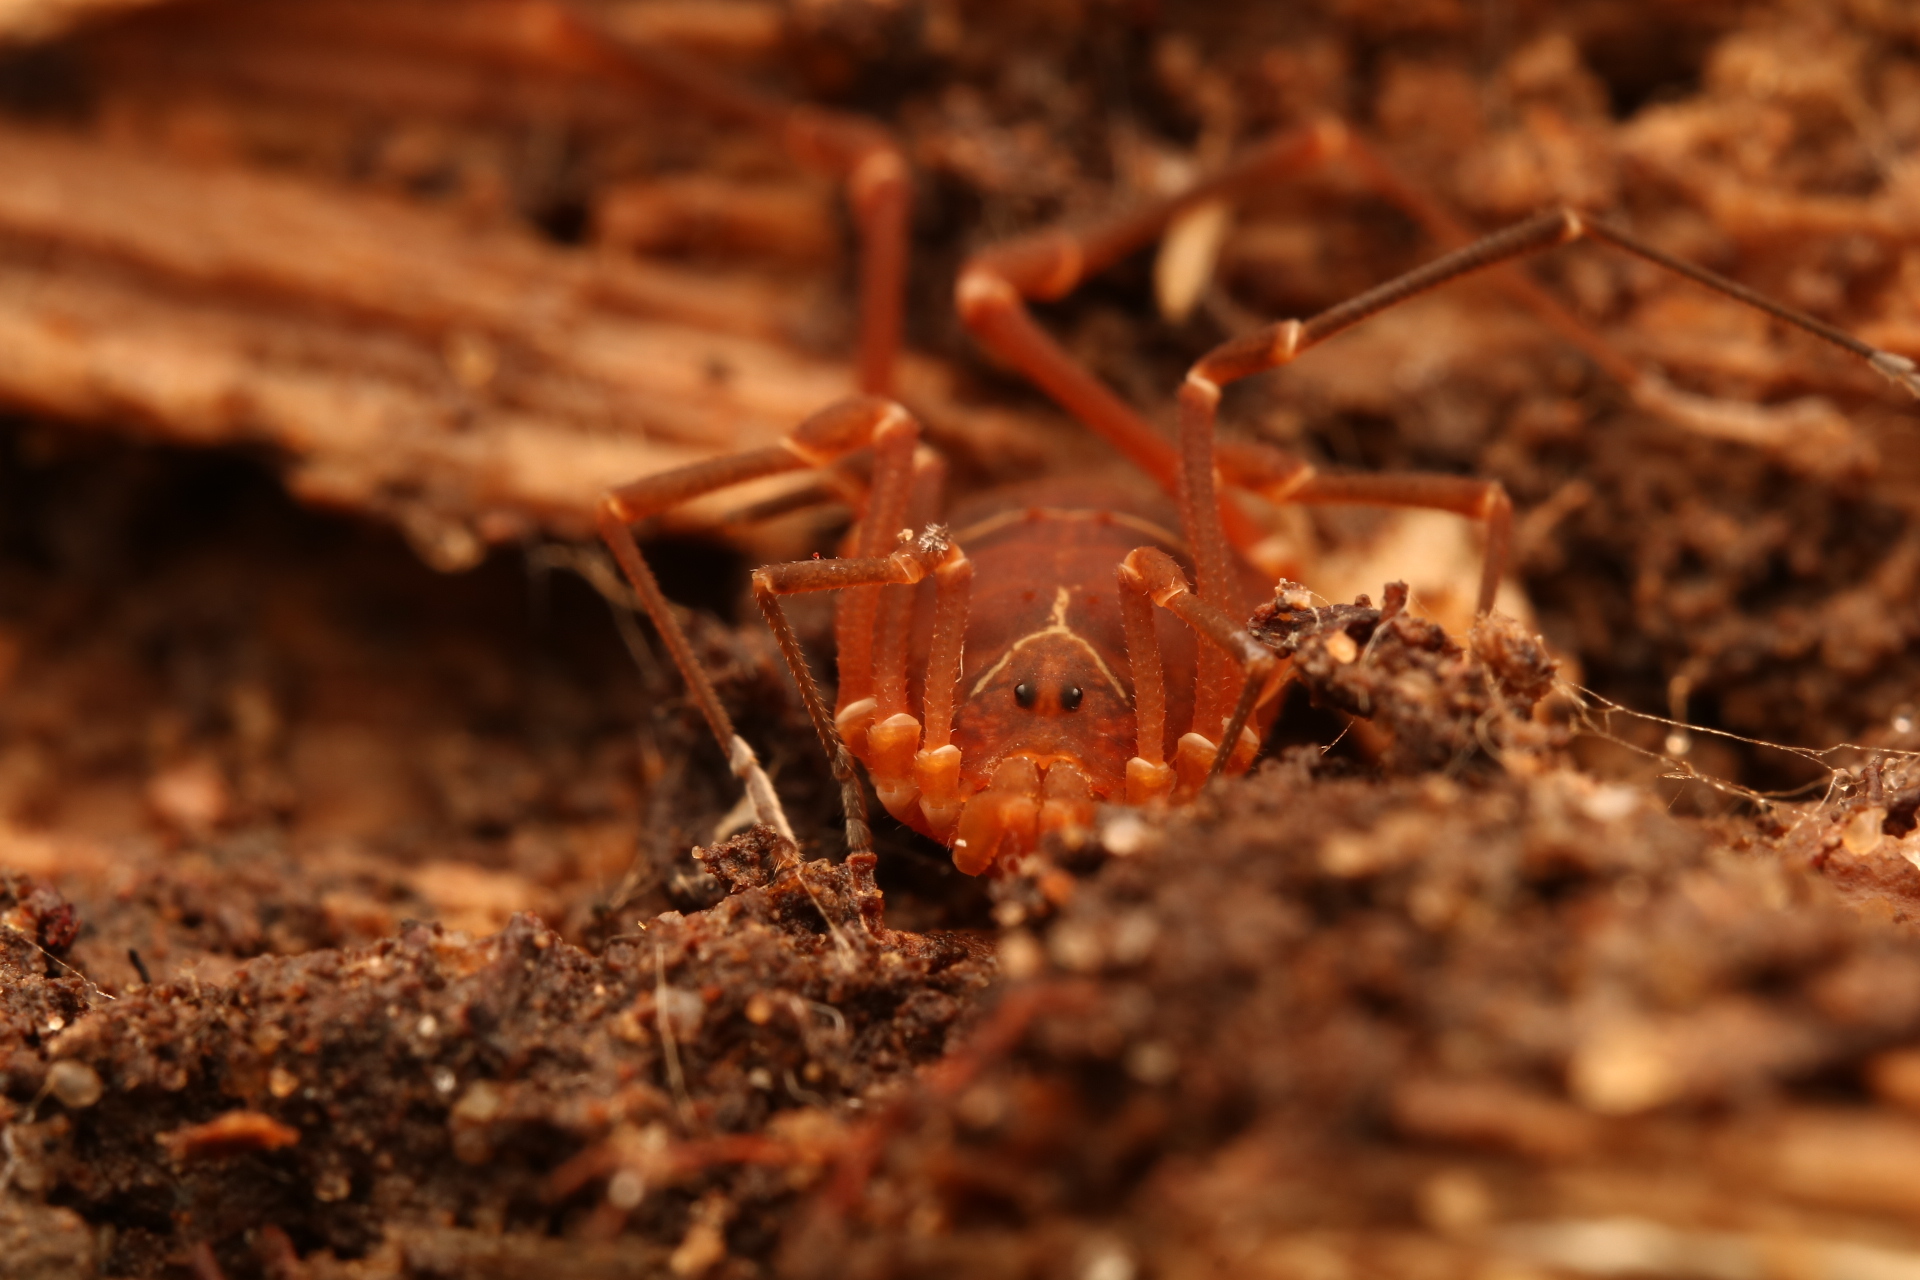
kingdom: Animalia
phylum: Arthropoda
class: Arachnida
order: Opiliones
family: Cosmetidae
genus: Libitioides
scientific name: Libitioides sayi
